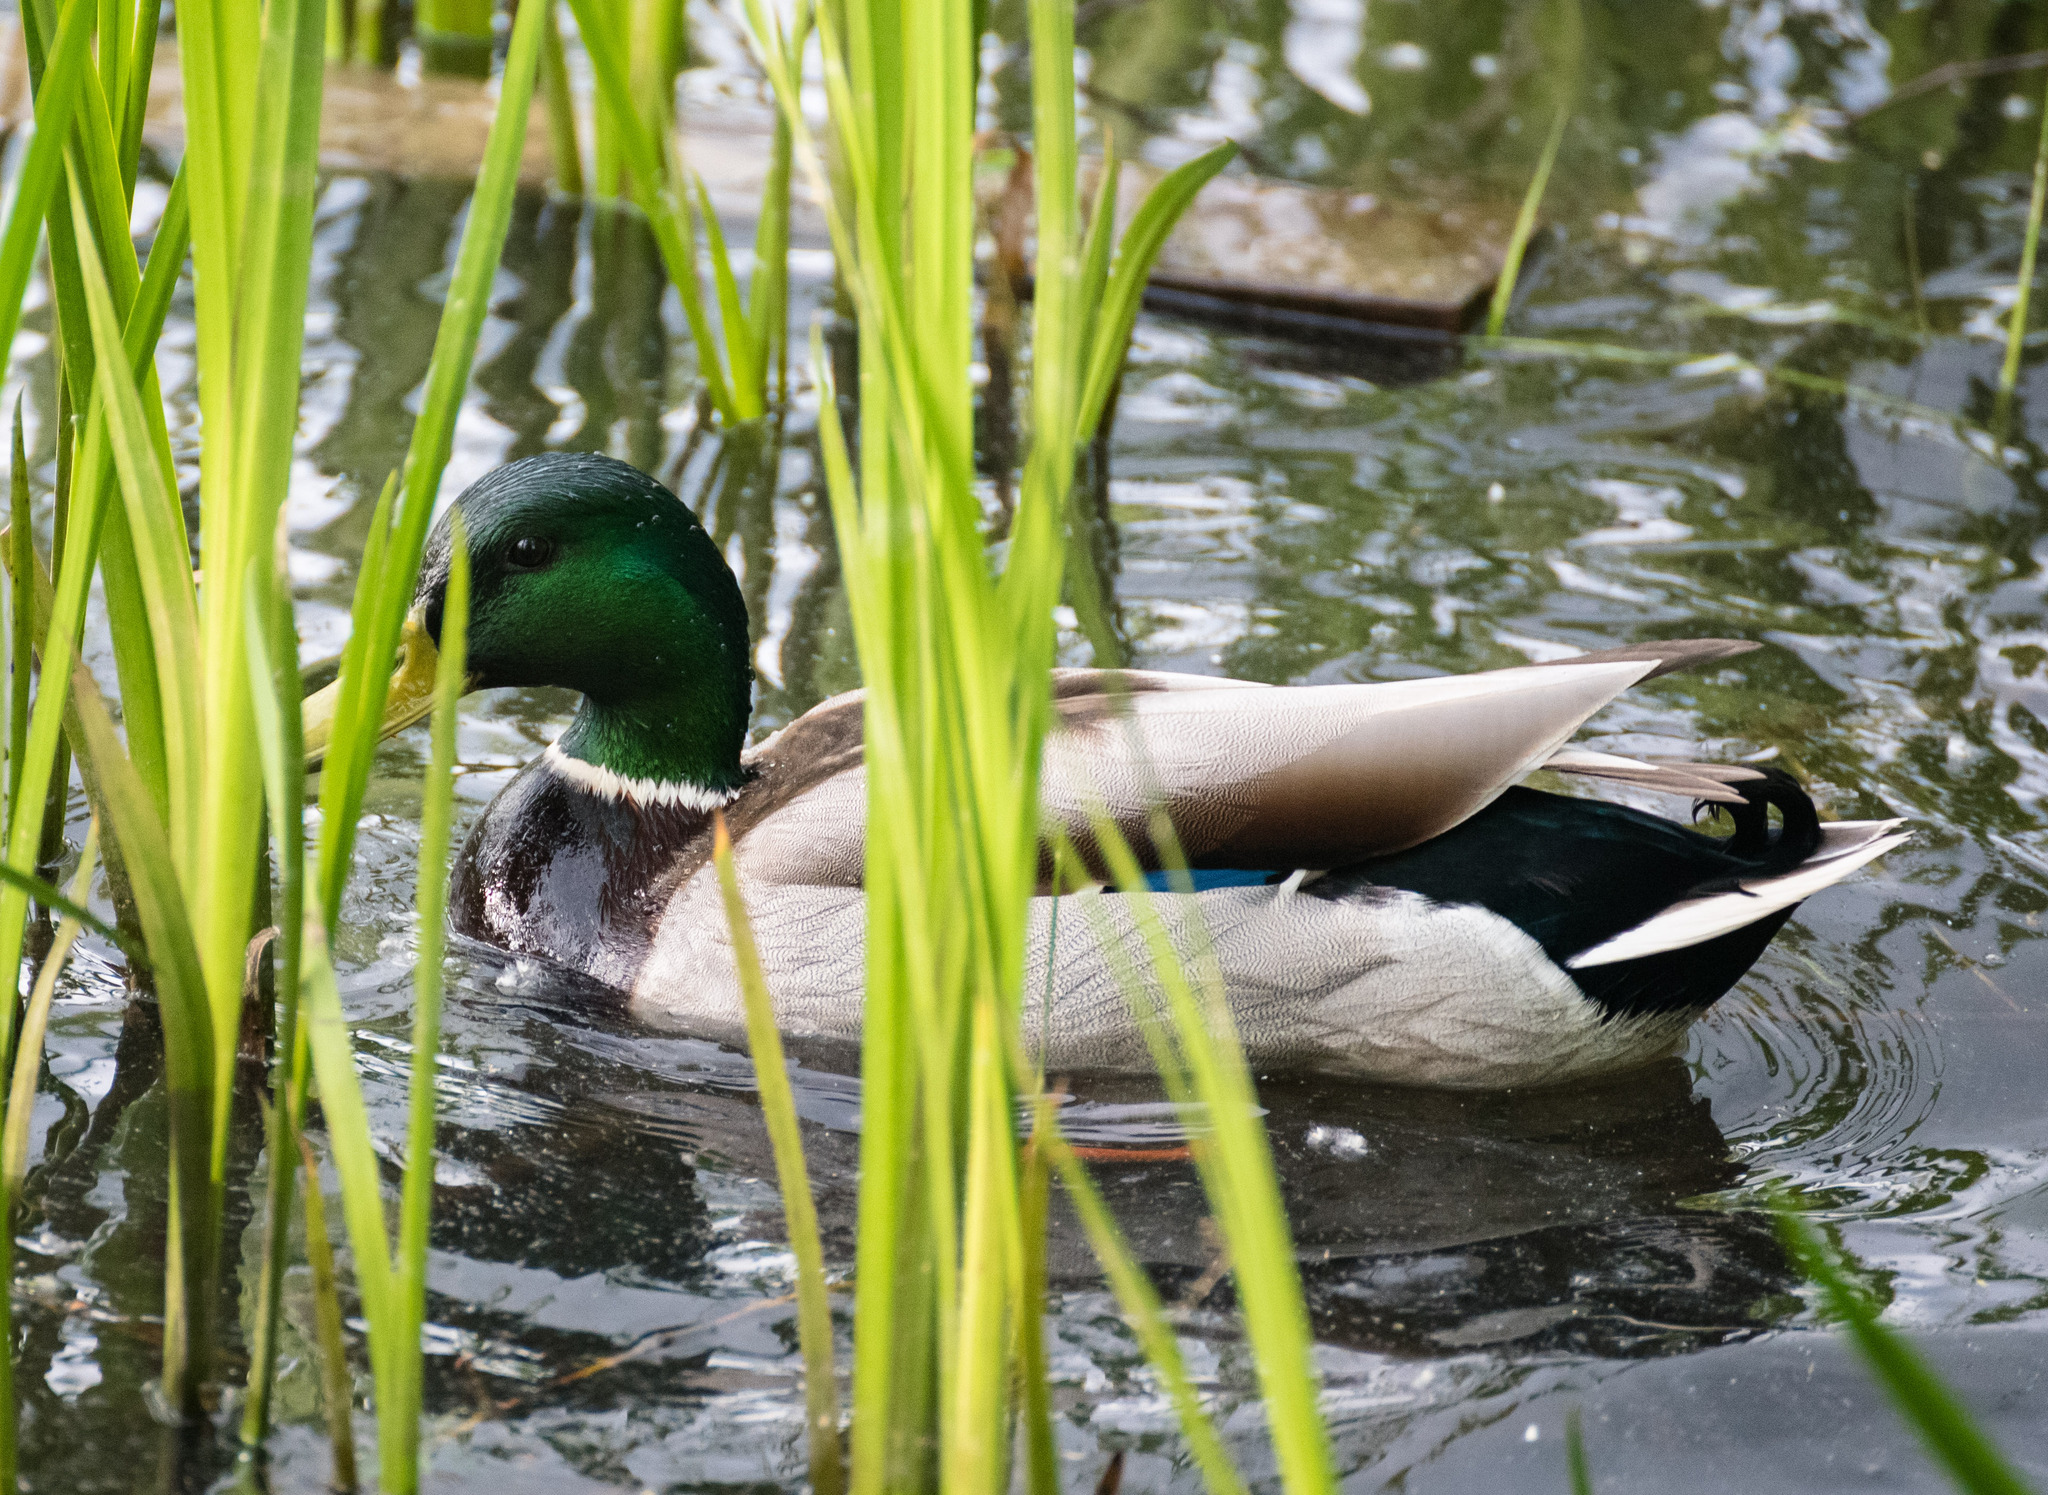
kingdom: Animalia
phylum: Chordata
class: Aves
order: Anseriformes
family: Anatidae
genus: Anas
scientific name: Anas platyrhynchos
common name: Mallard
